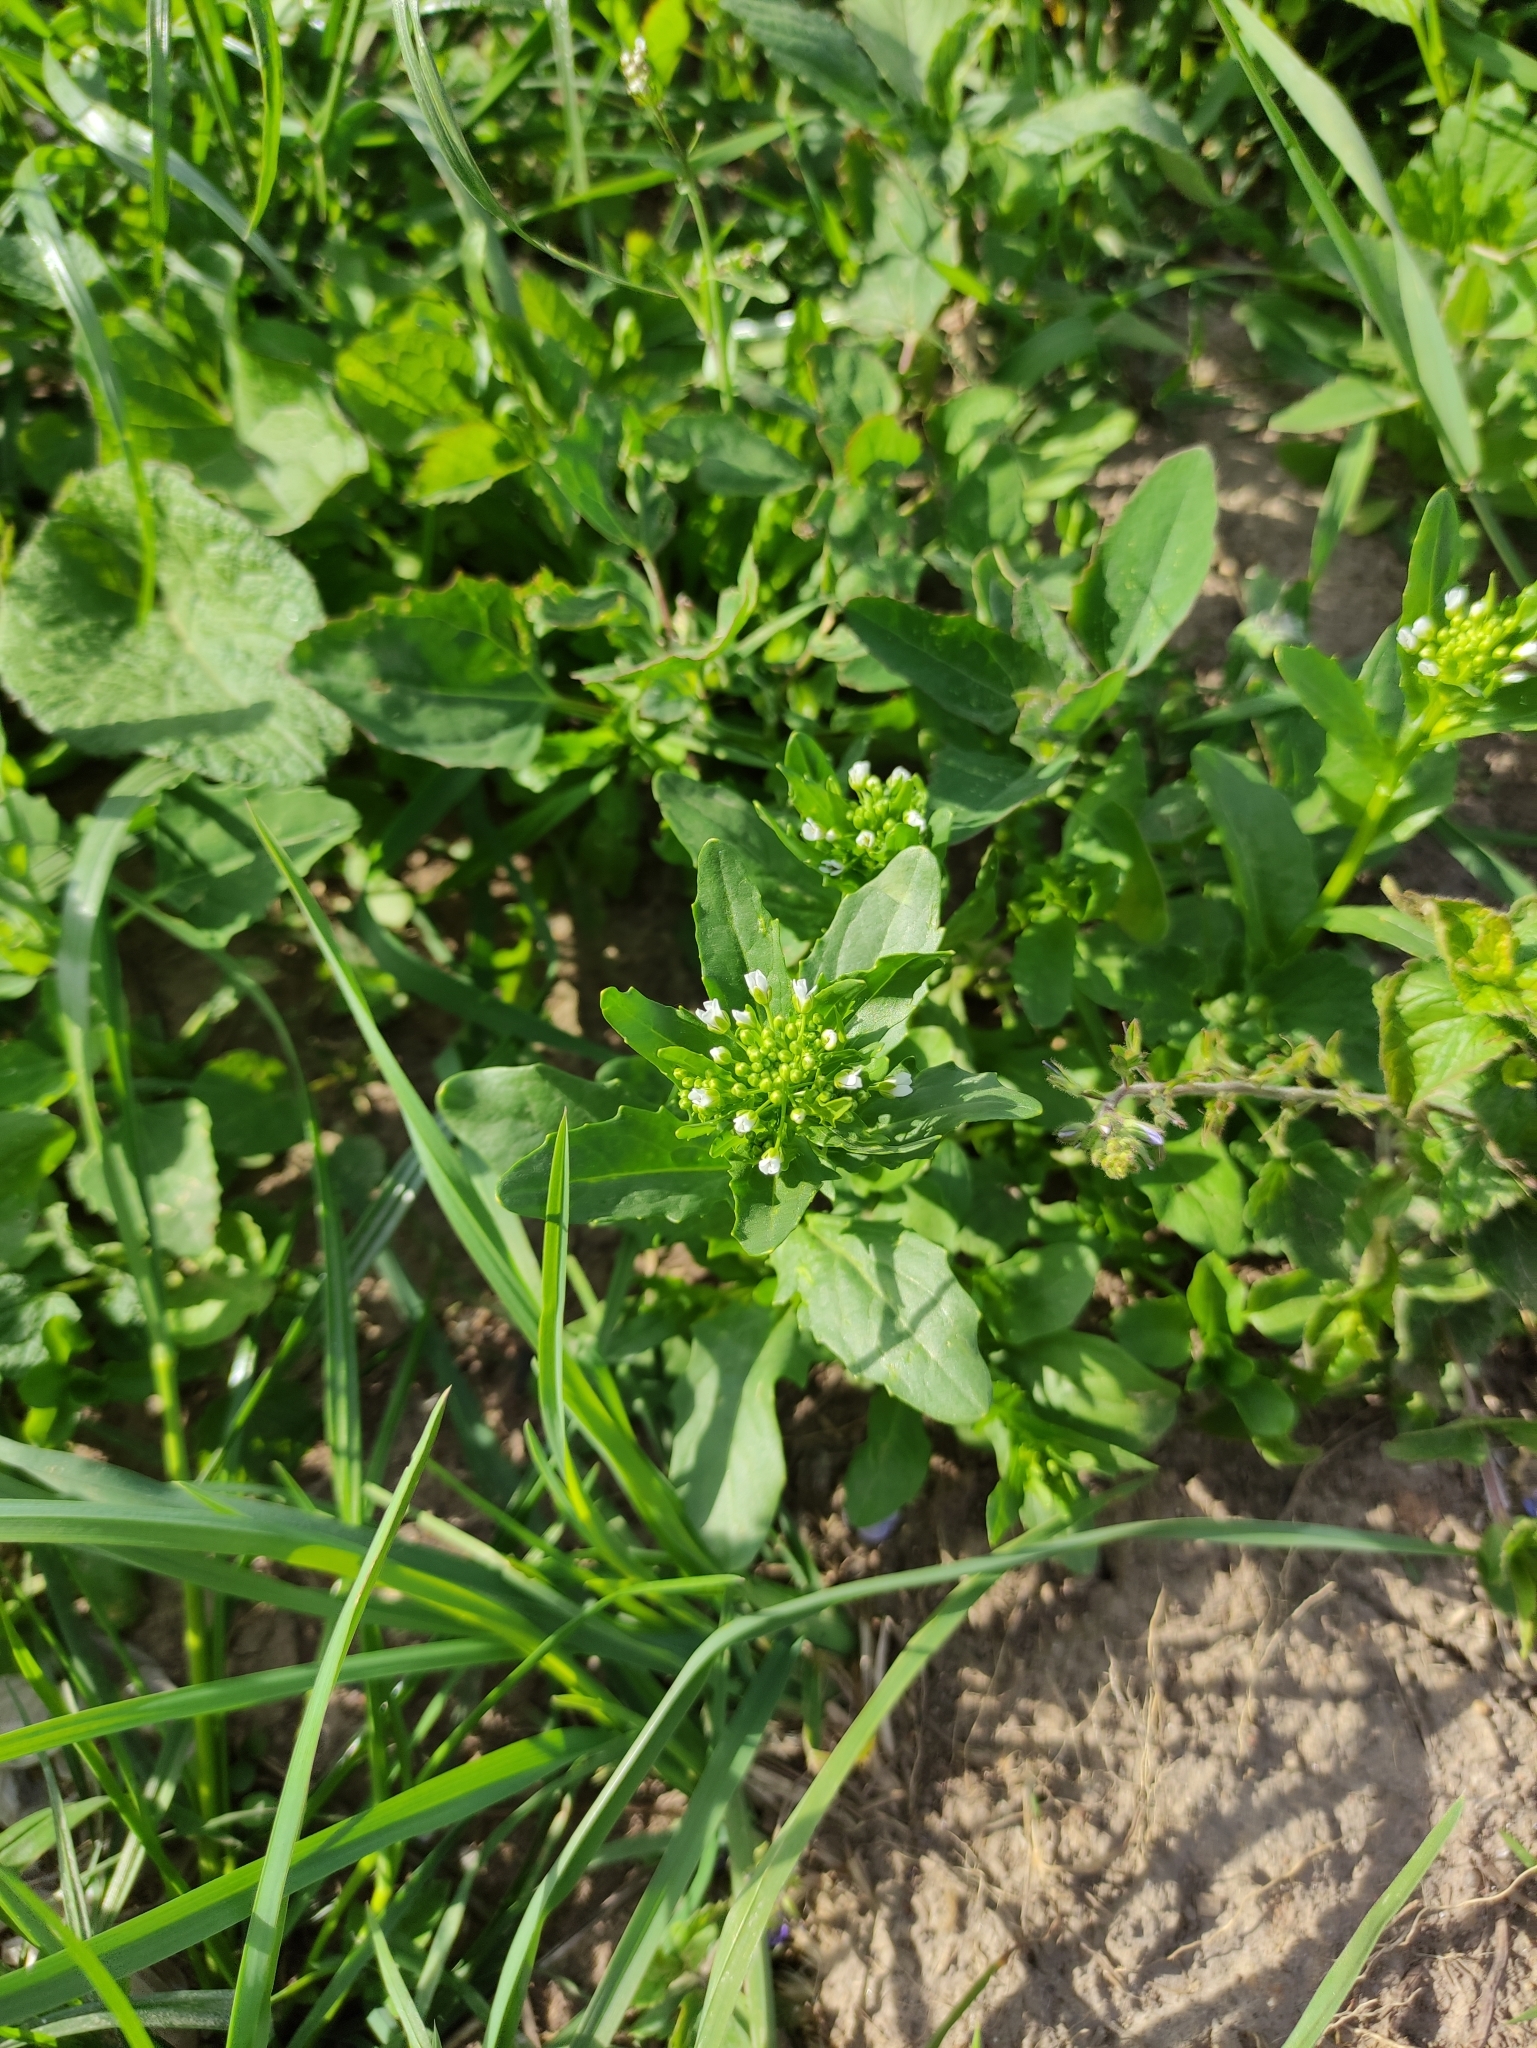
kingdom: Plantae
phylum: Tracheophyta
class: Magnoliopsida
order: Brassicales
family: Brassicaceae
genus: Thlaspi
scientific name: Thlaspi arvense
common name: Field pennycress
